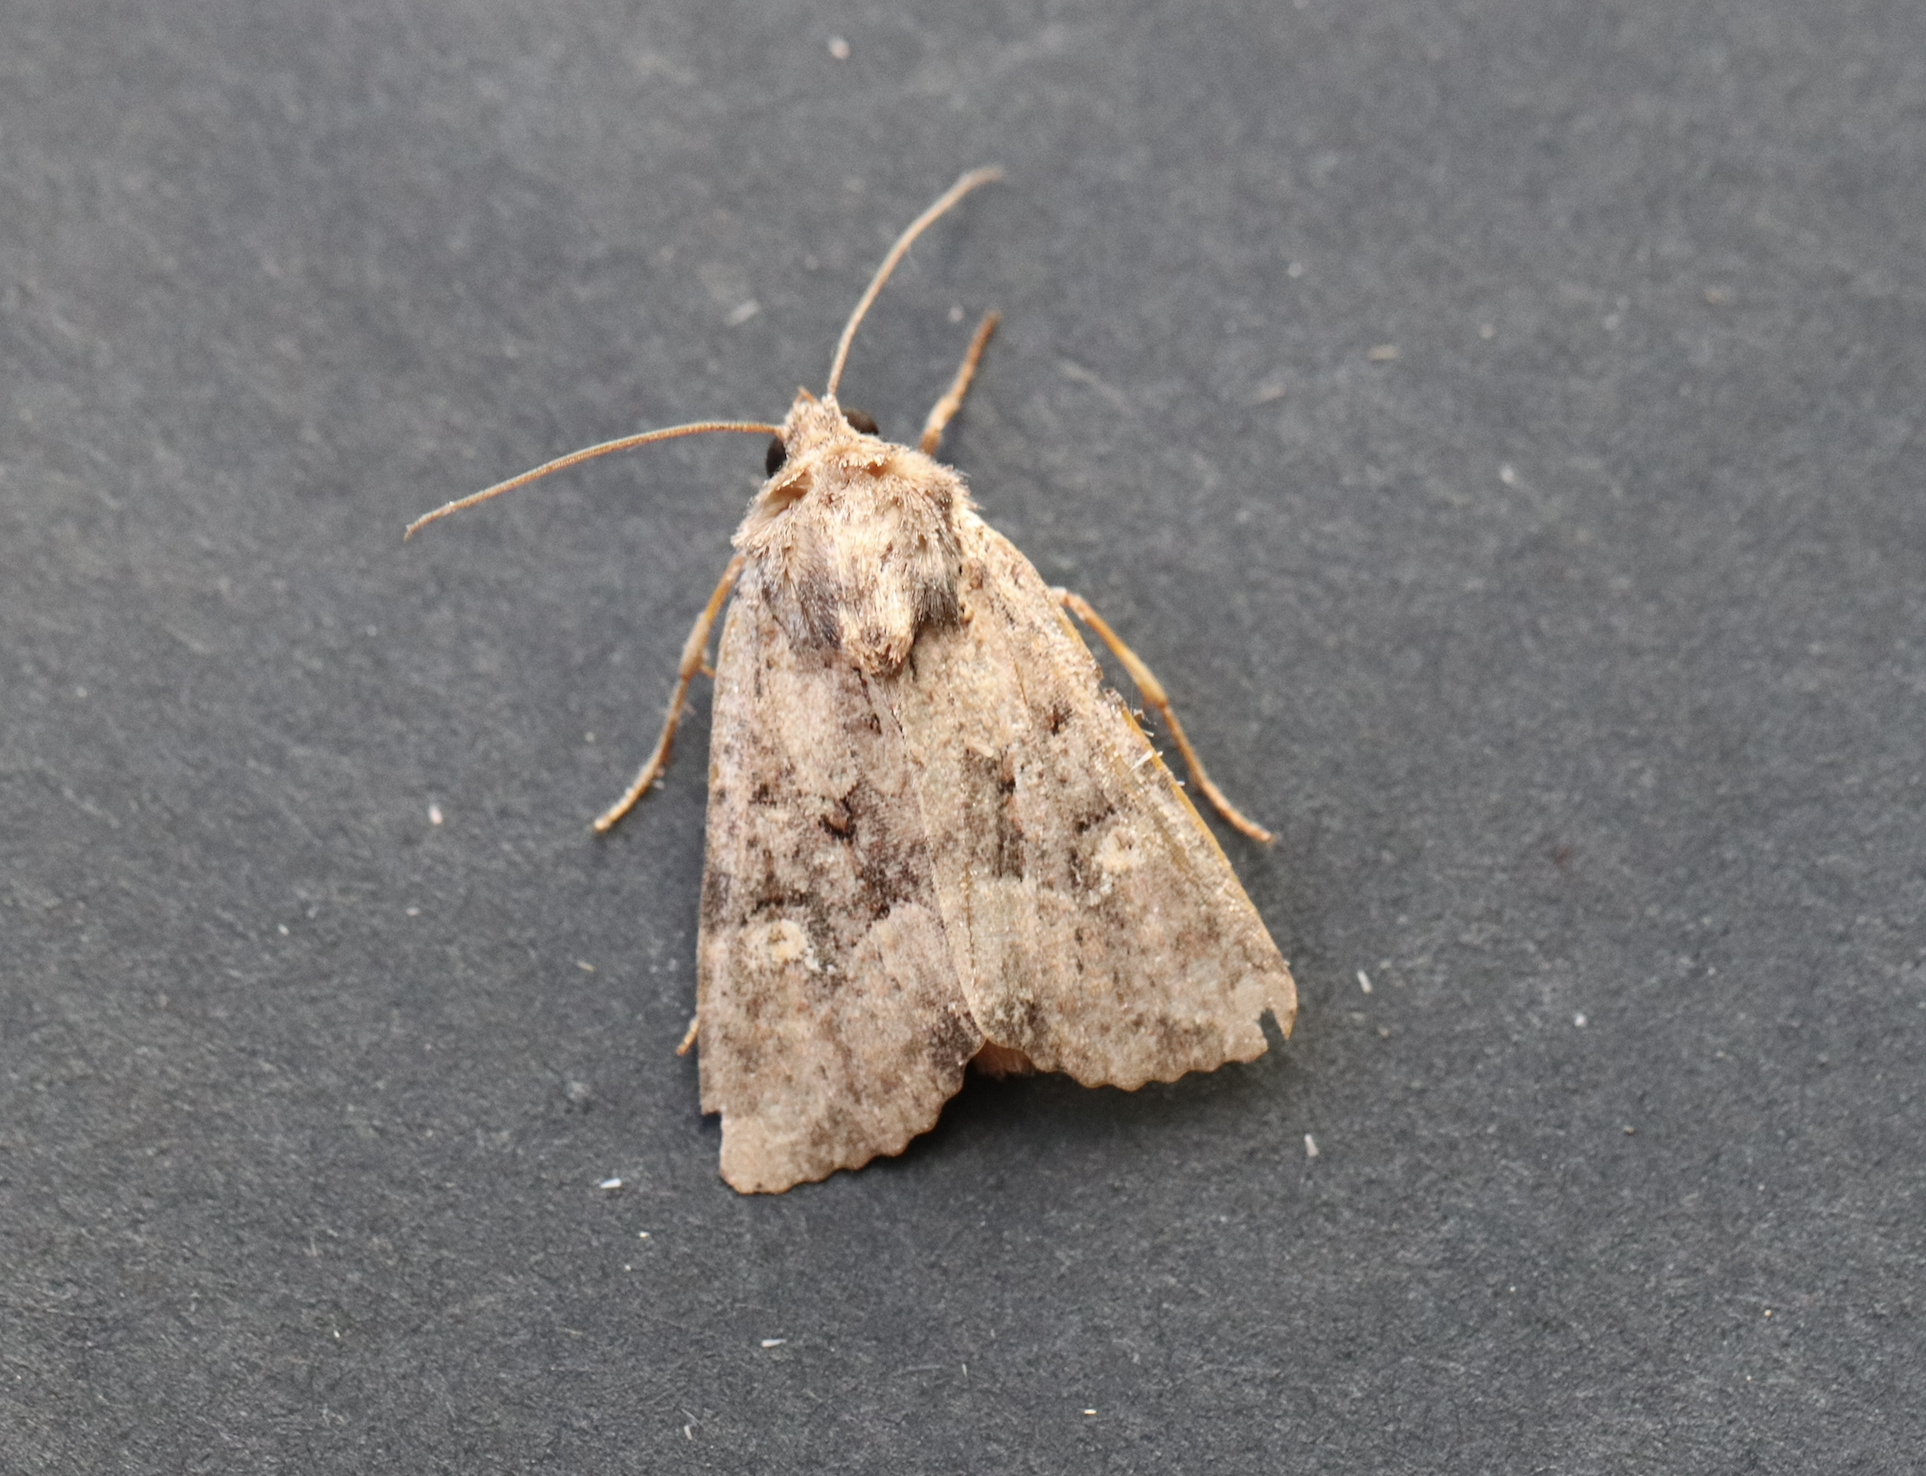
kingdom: Animalia
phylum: Arthropoda
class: Insecta
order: Lepidoptera
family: Noctuidae
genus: Mesapamea
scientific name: Mesapamea
